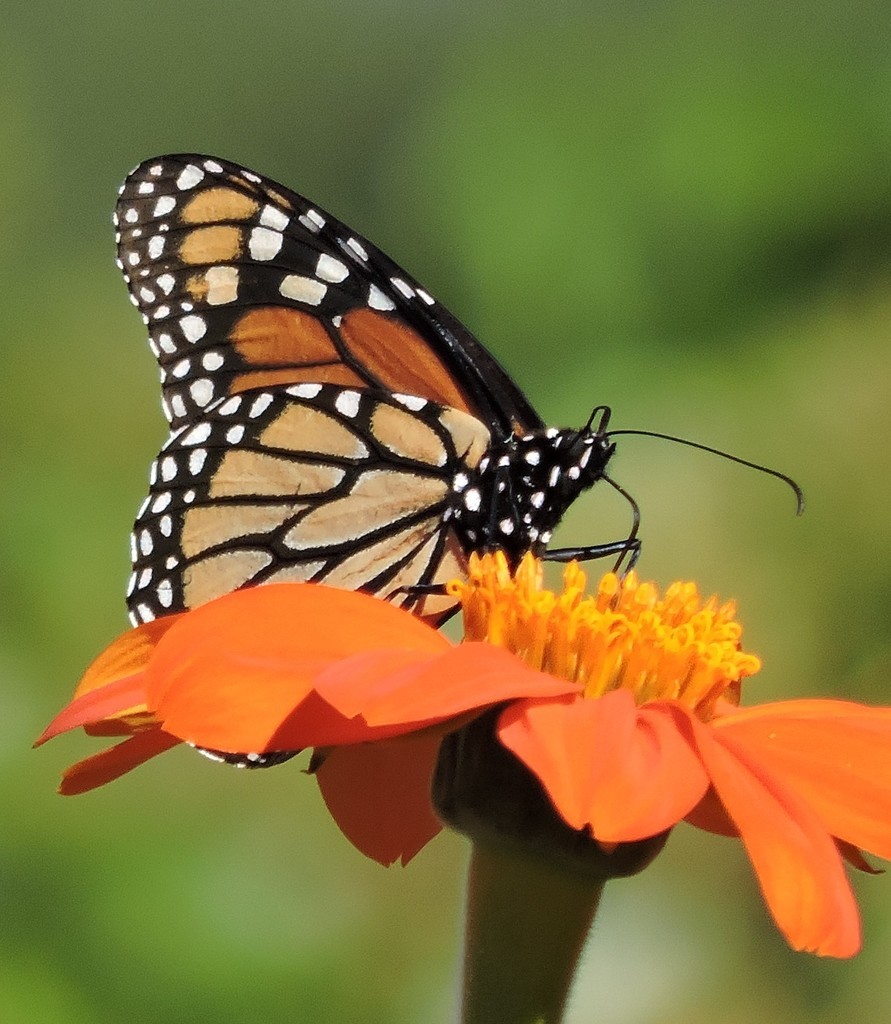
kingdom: Animalia
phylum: Arthropoda
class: Insecta
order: Lepidoptera
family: Nymphalidae
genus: Danaus
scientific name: Danaus plexippus
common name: Monarch
